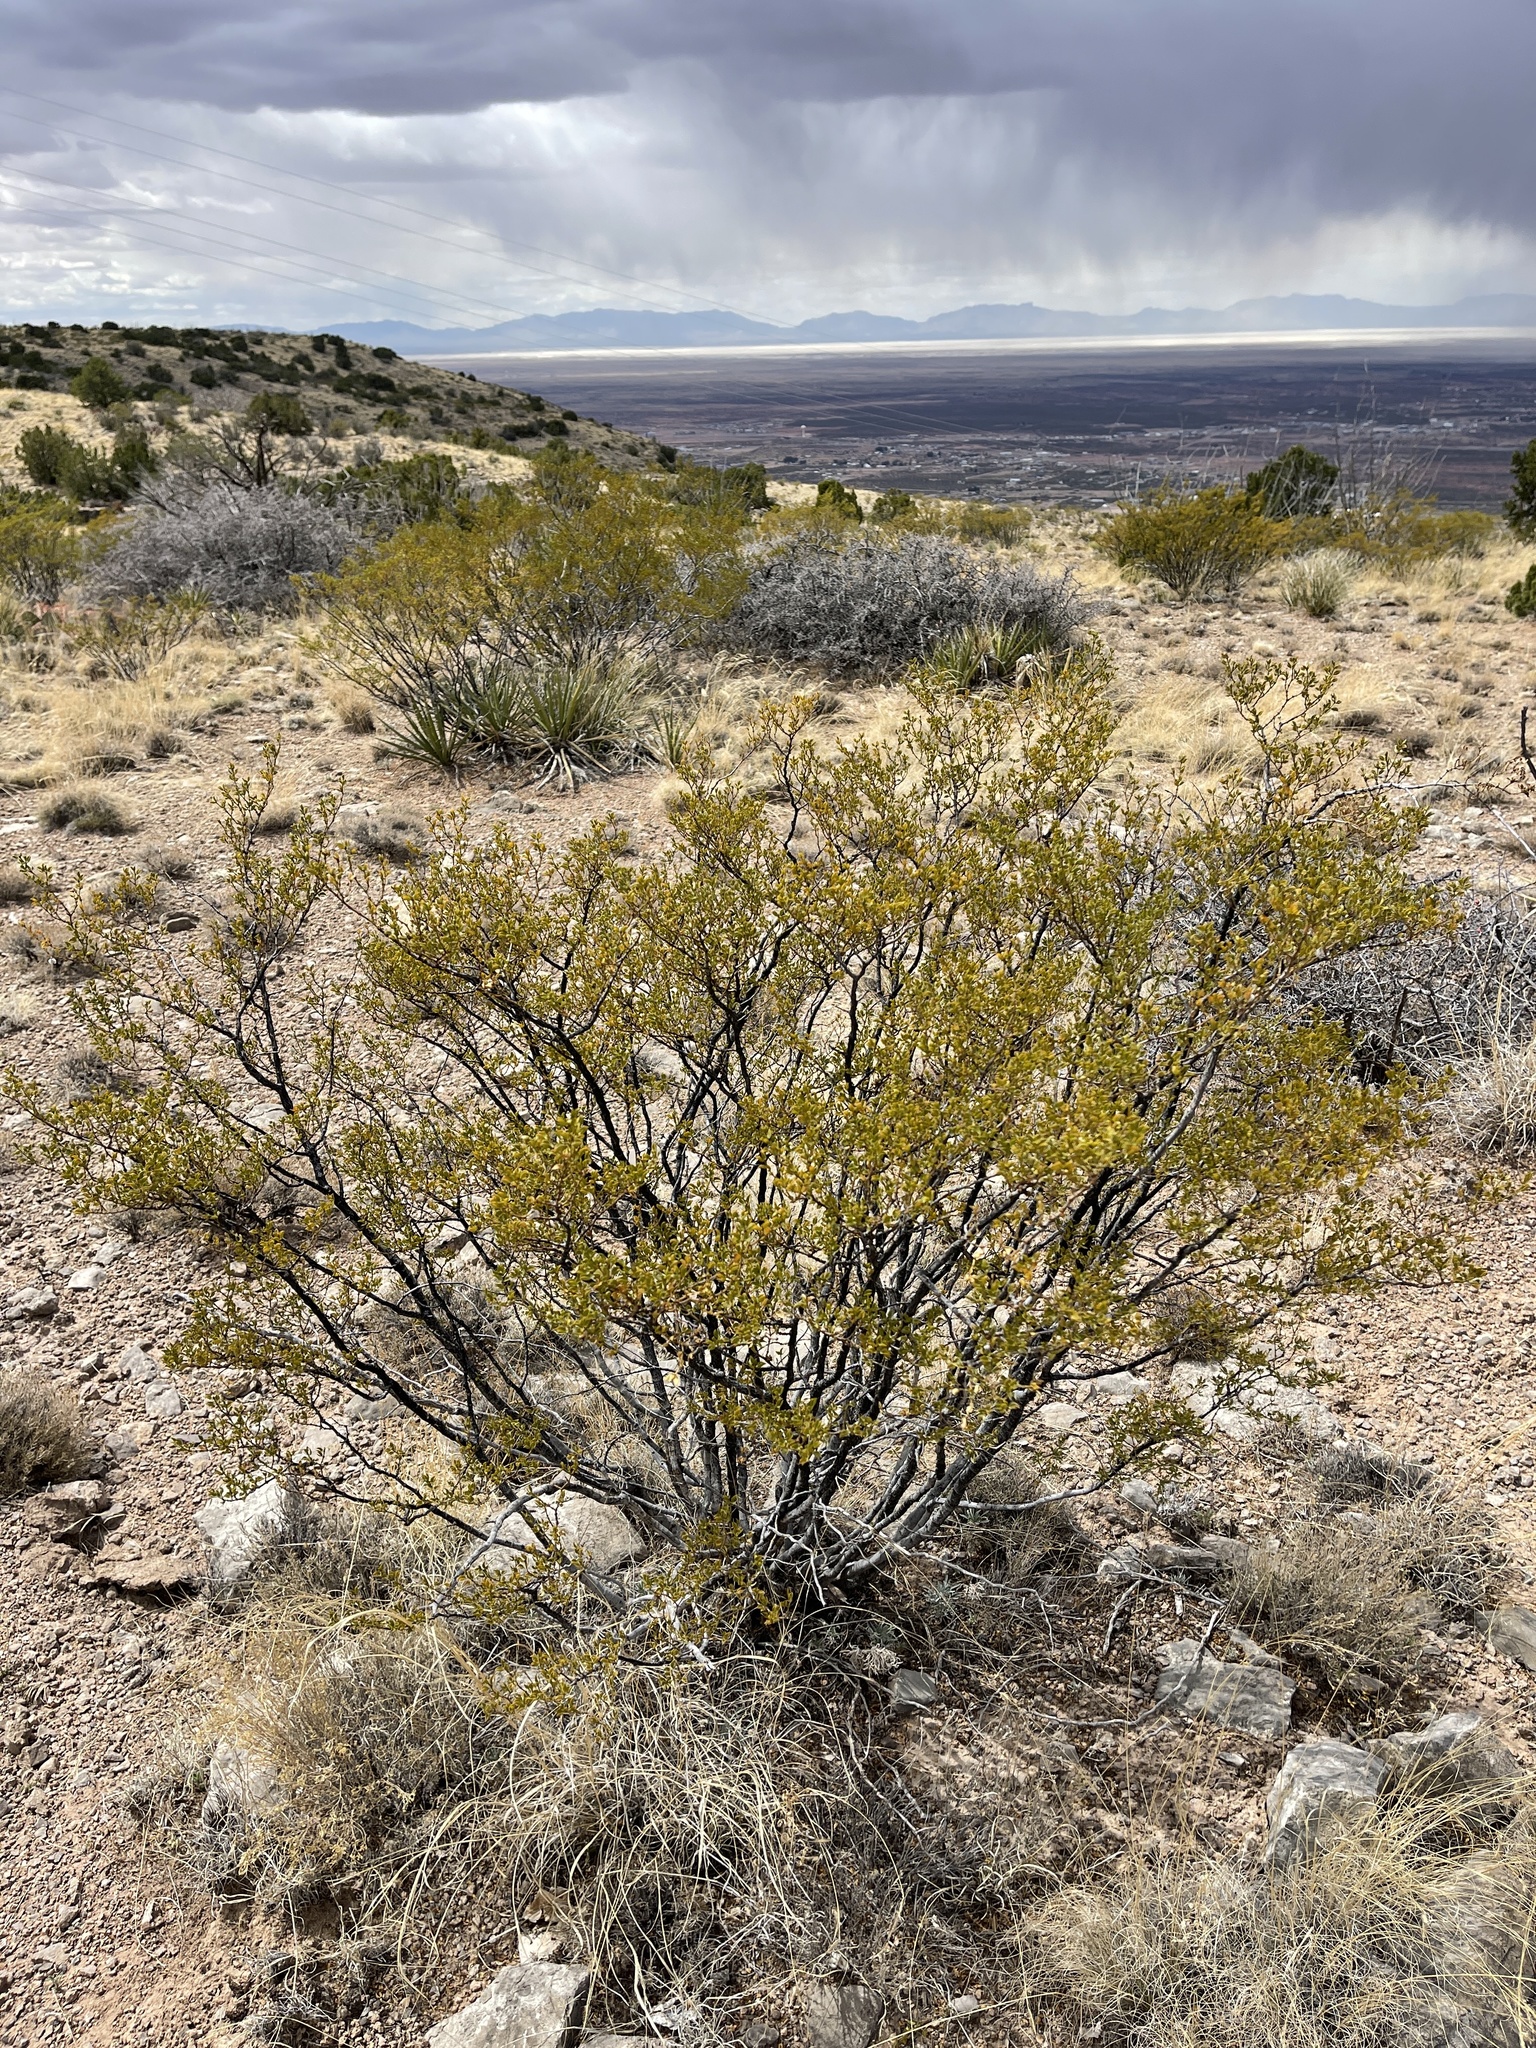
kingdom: Plantae
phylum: Tracheophyta
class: Magnoliopsida
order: Zygophyllales
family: Zygophyllaceae
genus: Larrea
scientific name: Larrea tridentata
